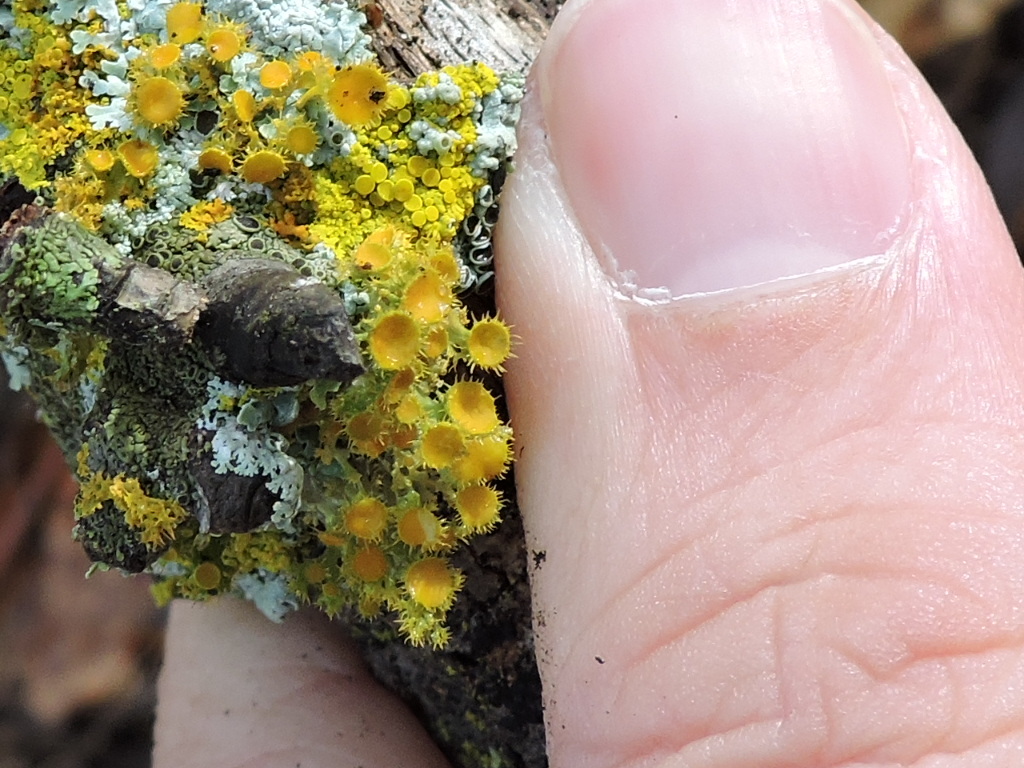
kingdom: Fungi
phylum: Ascomycota
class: Lecanoromycetes
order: Teloschistales
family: Teloschistaceae
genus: Niorma
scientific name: Niorma chrysophthalma
